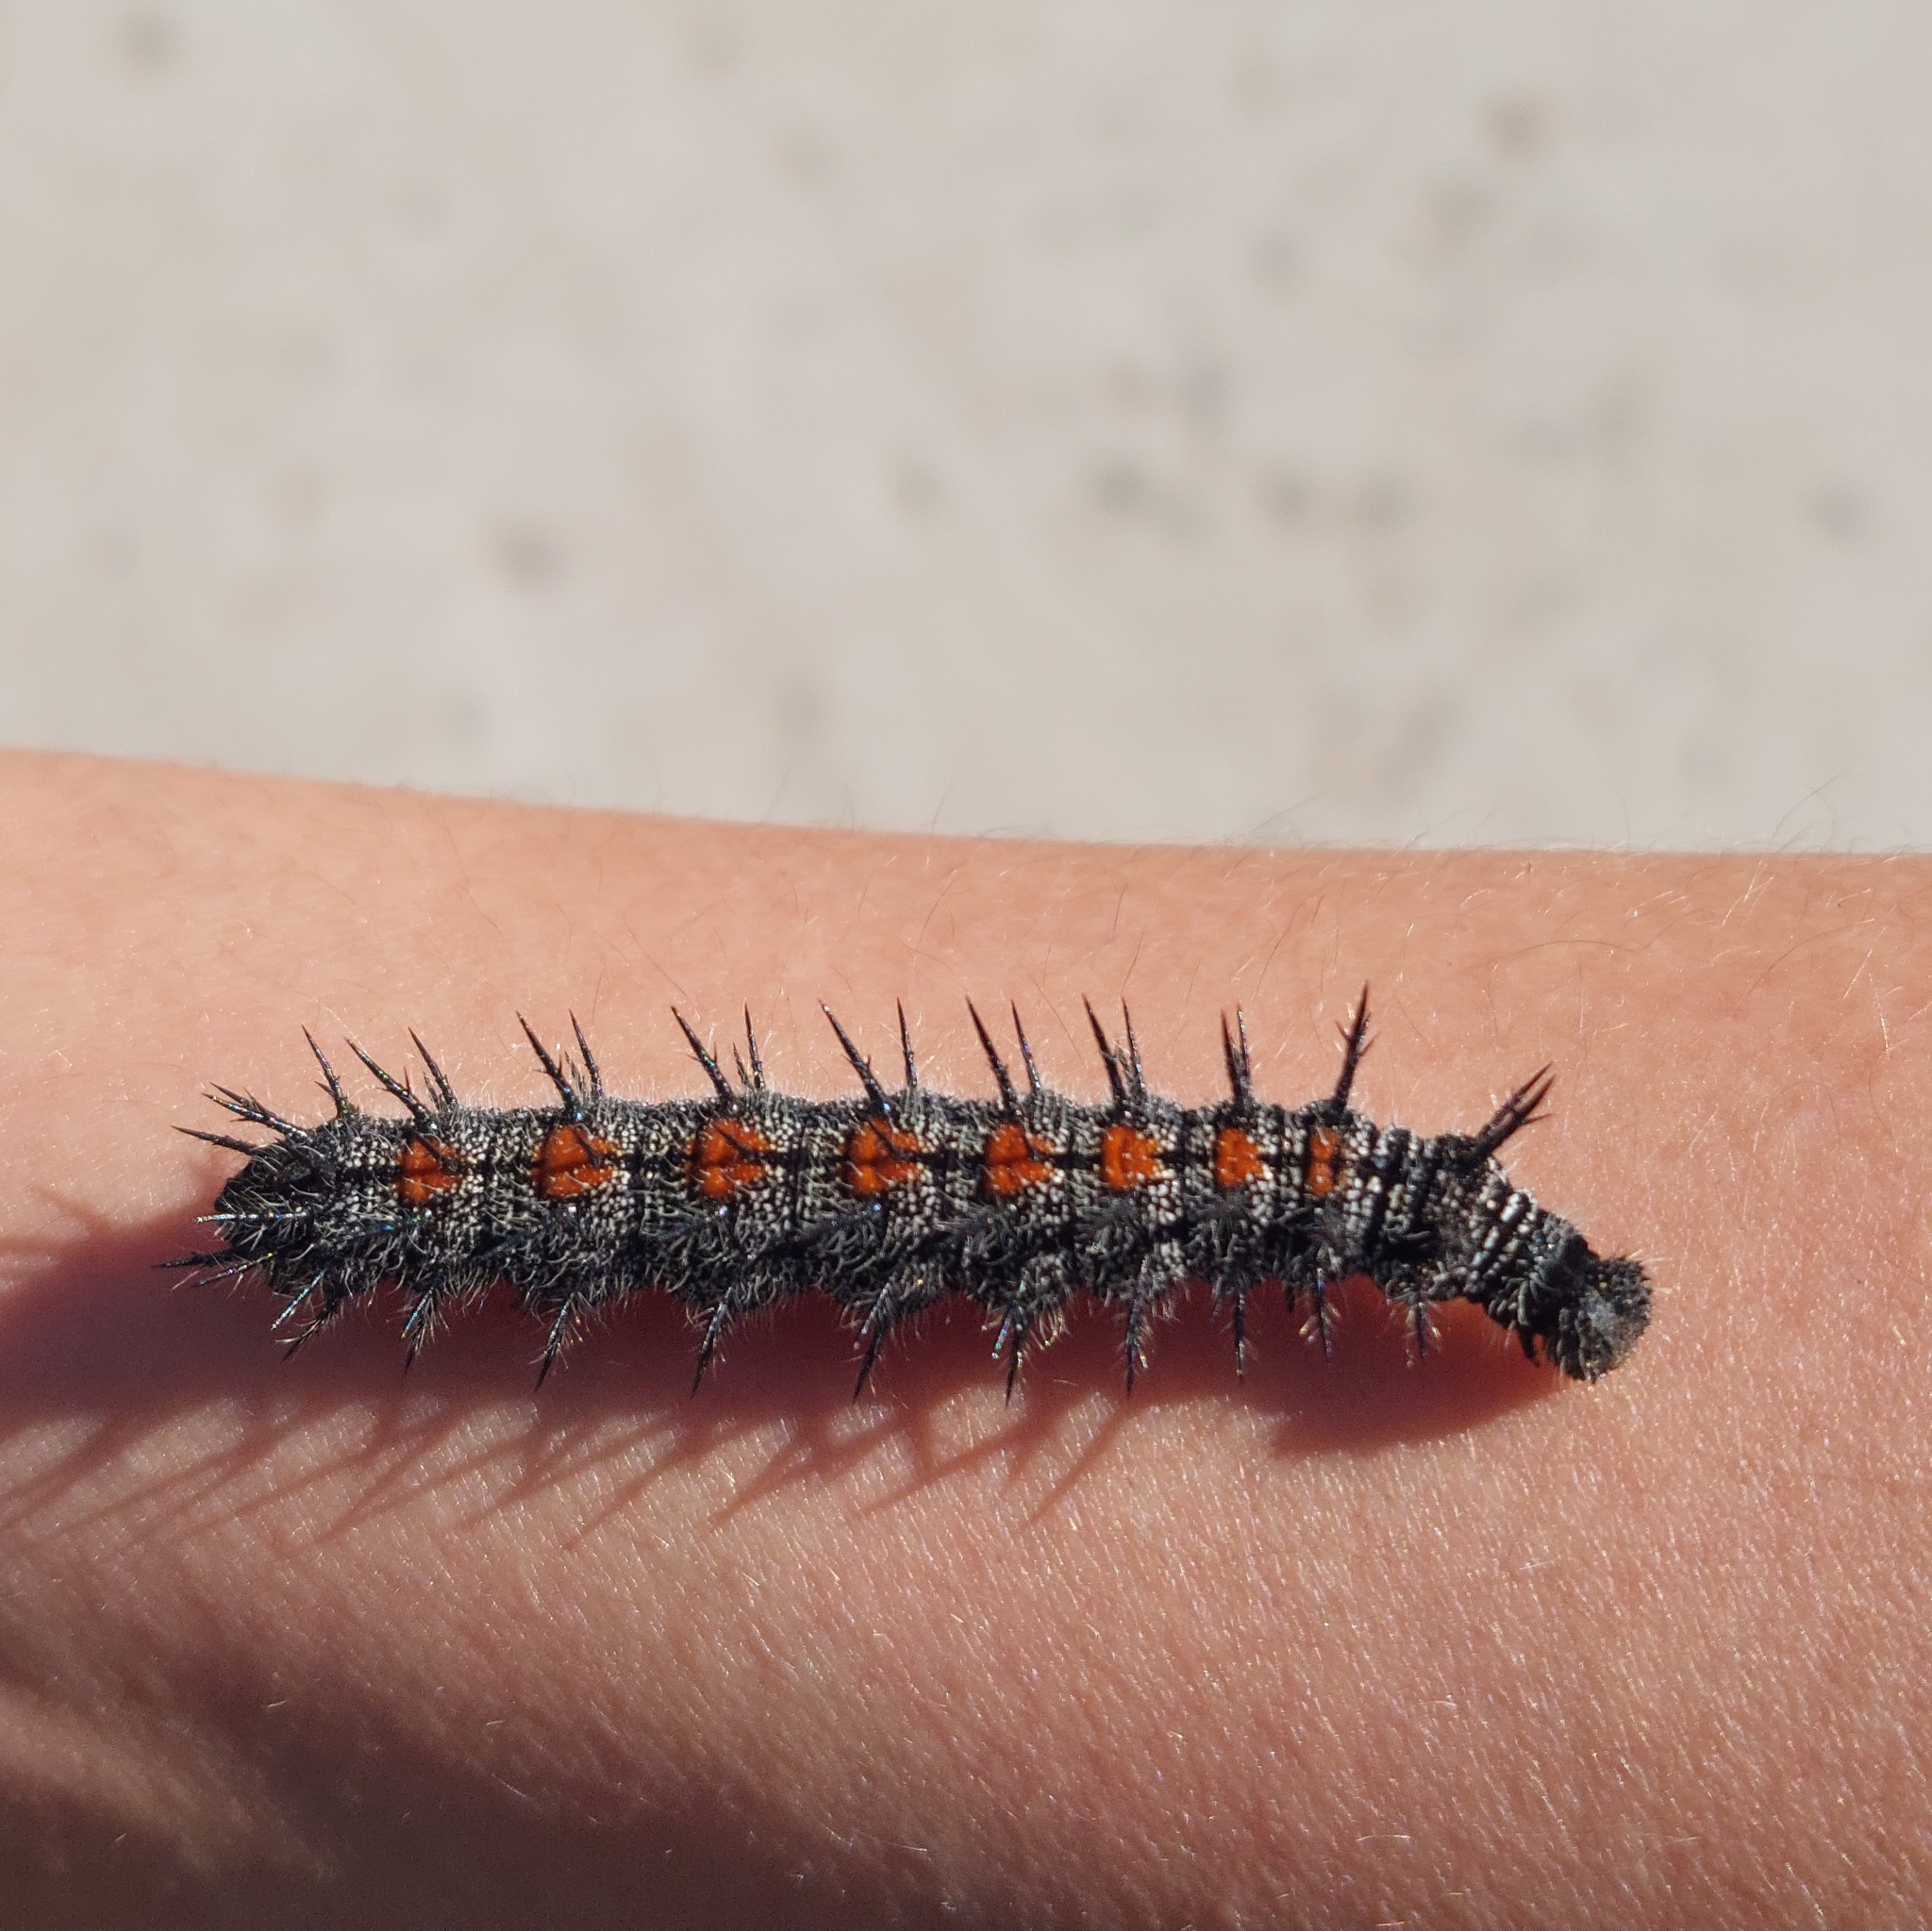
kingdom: Animalia
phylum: Arthropoda
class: Insecta
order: Lepidoptera
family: Nymphalidae
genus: Nymphalis
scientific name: Nymphalis antiopa
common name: Camberwell beauty
